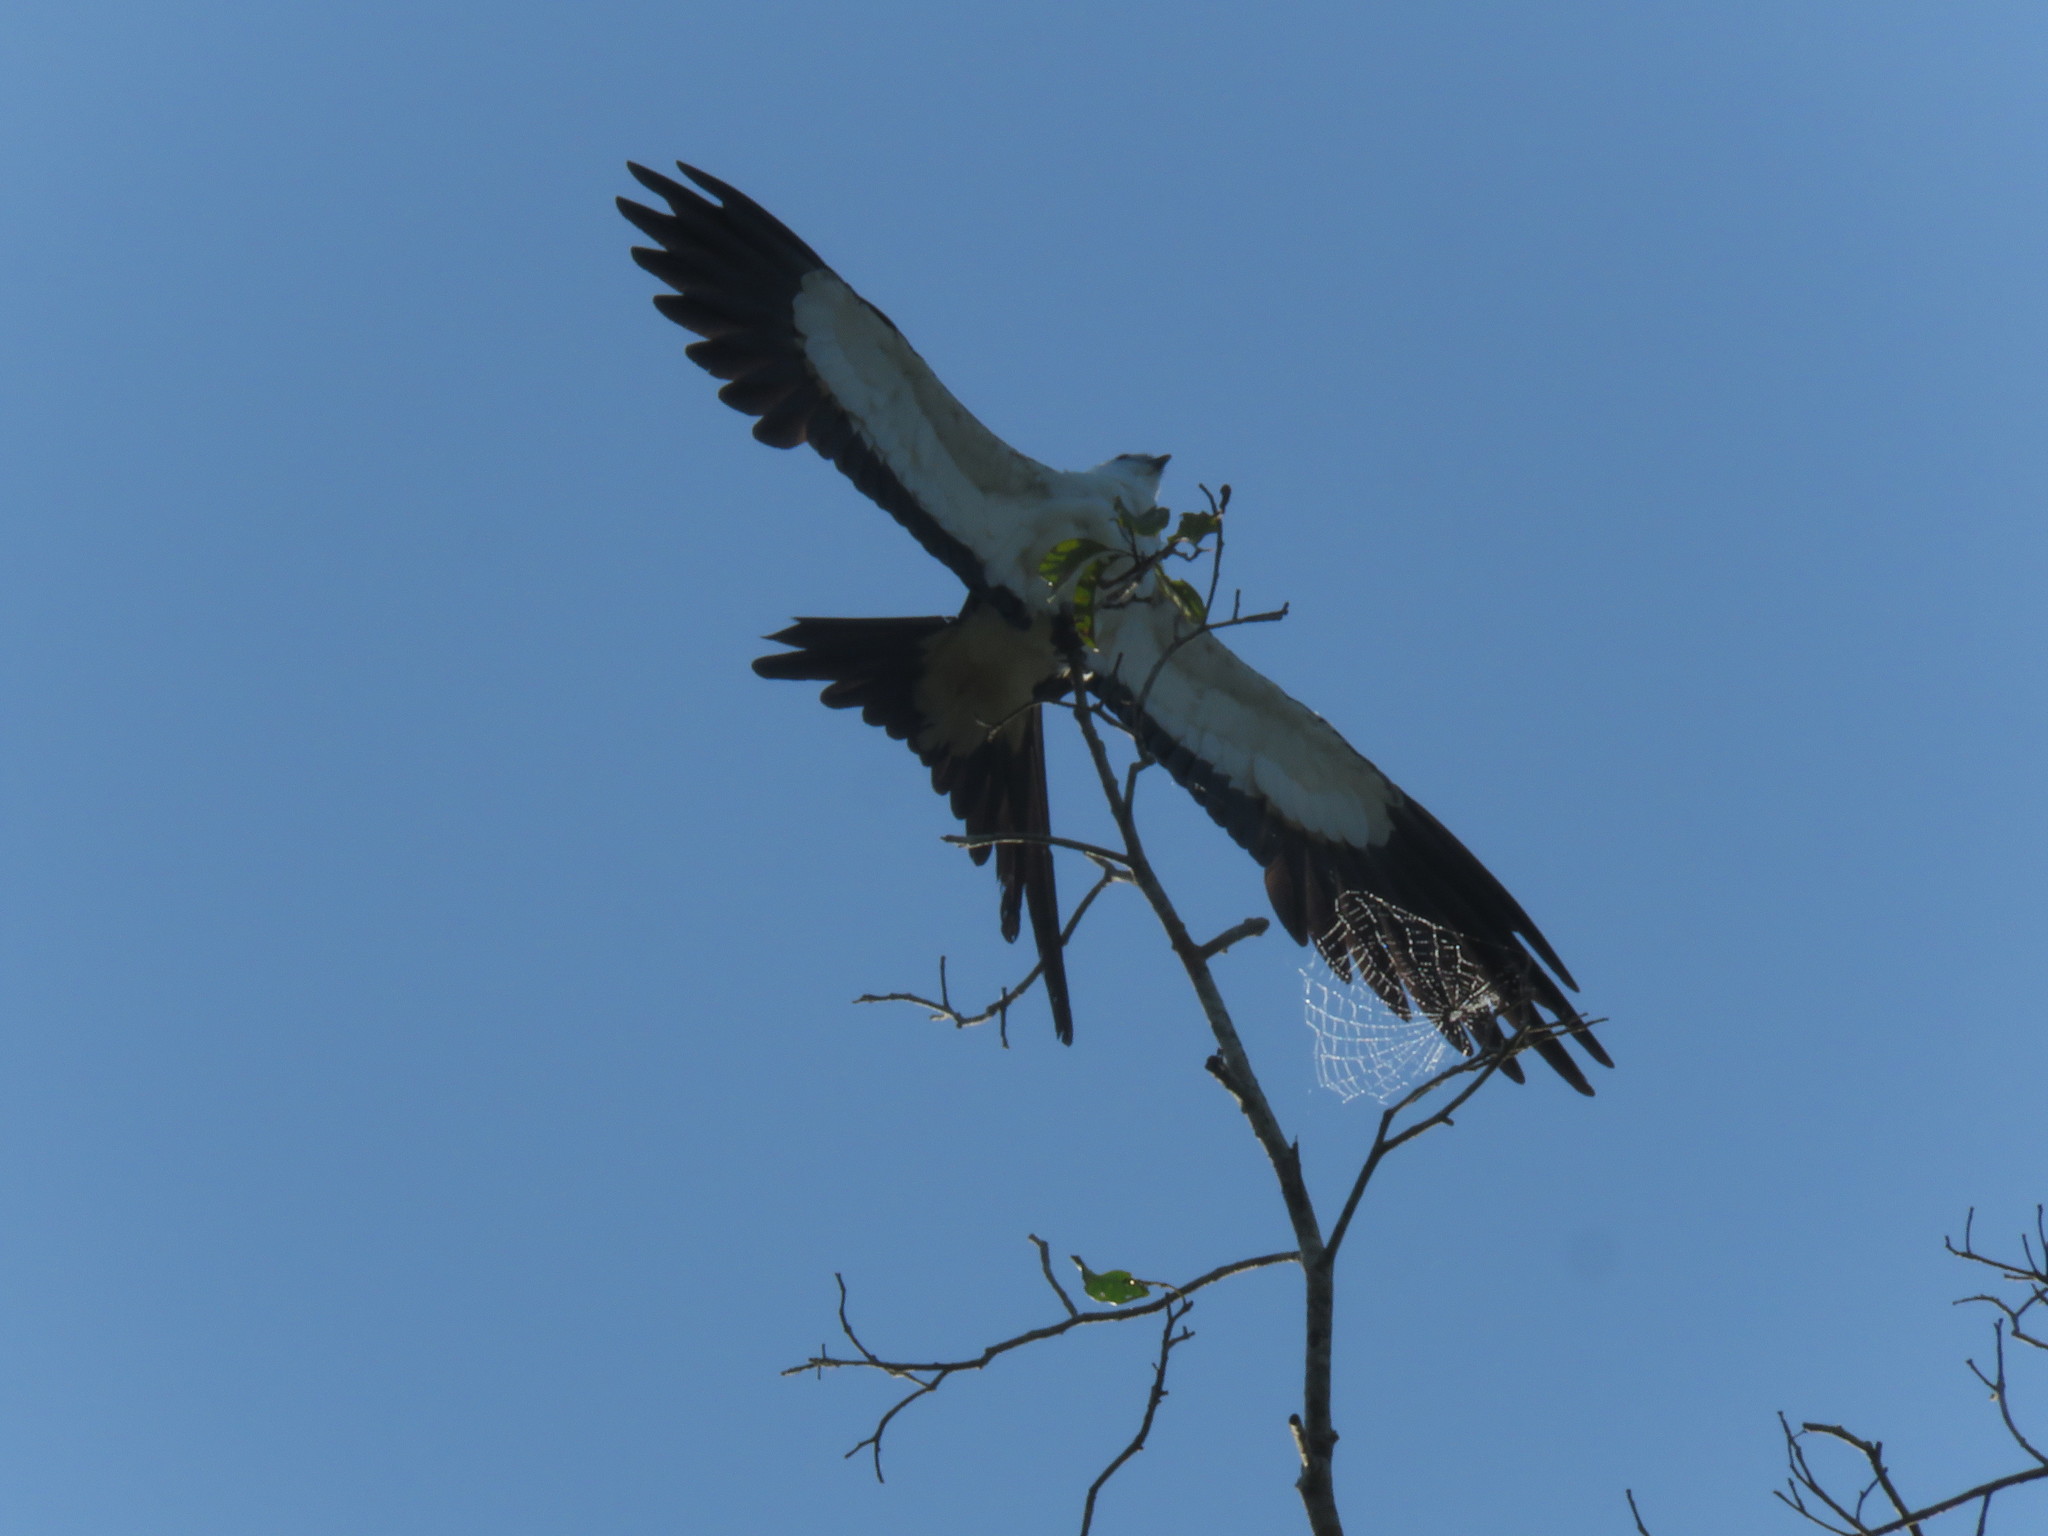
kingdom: Animalia
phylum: Chordata
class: Aves
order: Accipitriformes
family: Accipitridae
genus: Elanoides
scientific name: Elanoides forficatus
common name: Swallow-tailed kite
